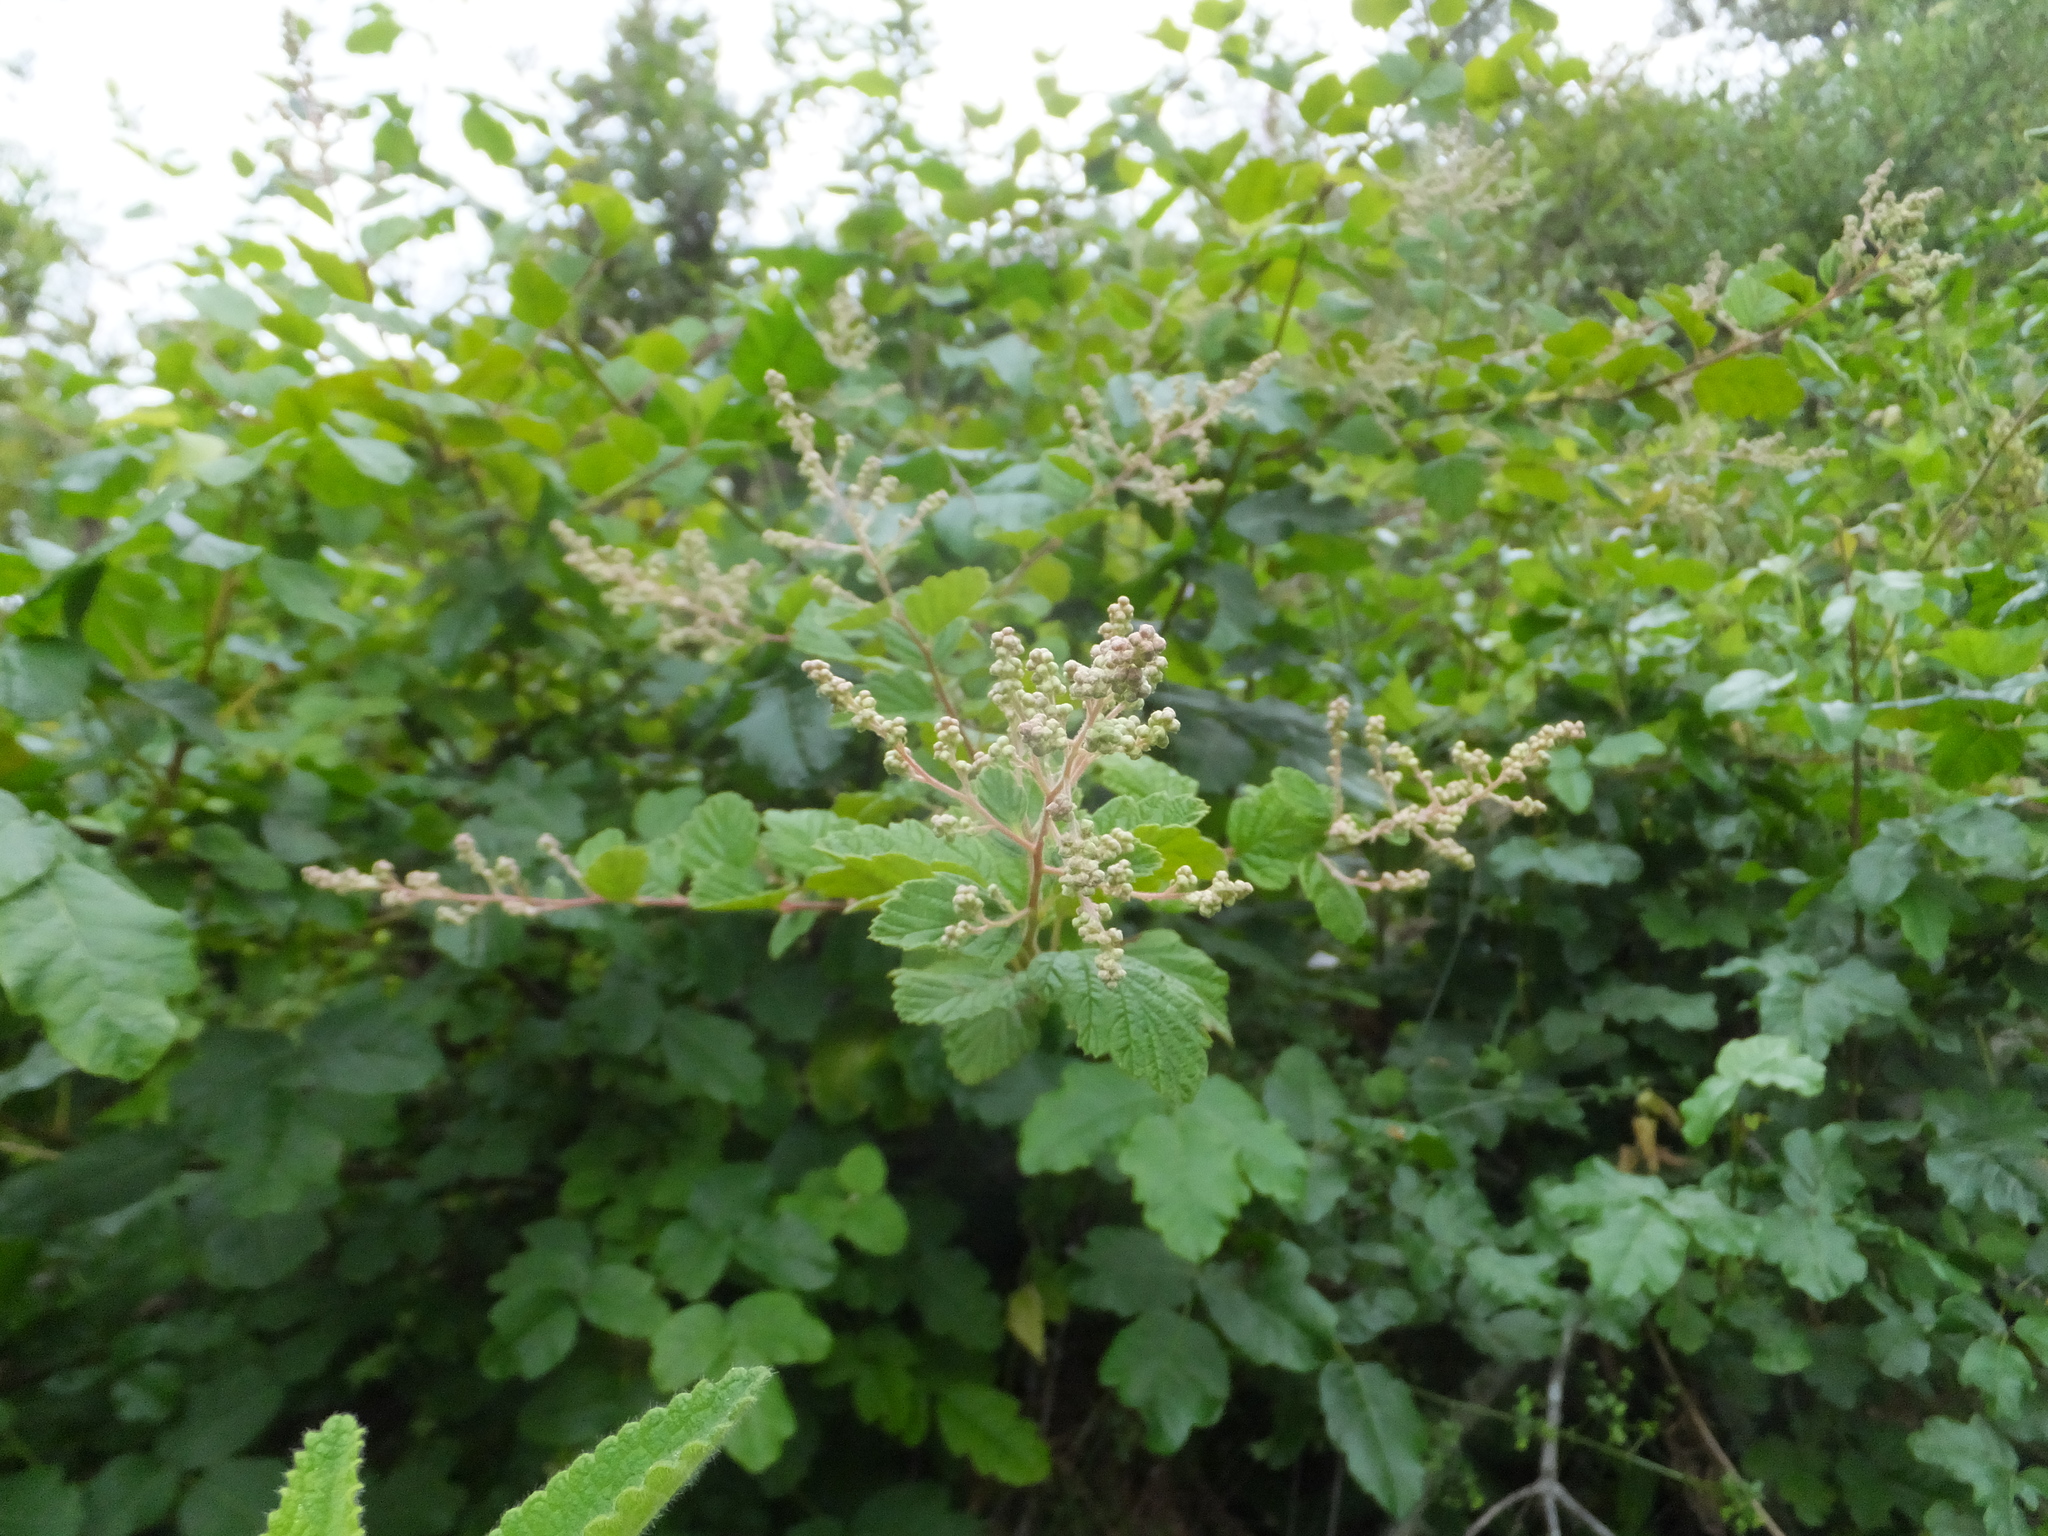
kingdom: Plantae
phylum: Tracheophyta
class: Magnoliopsida
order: Rosales
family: Rosaceae
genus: Holodiscus
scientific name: Holodiscus discolor
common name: Oceanspray
